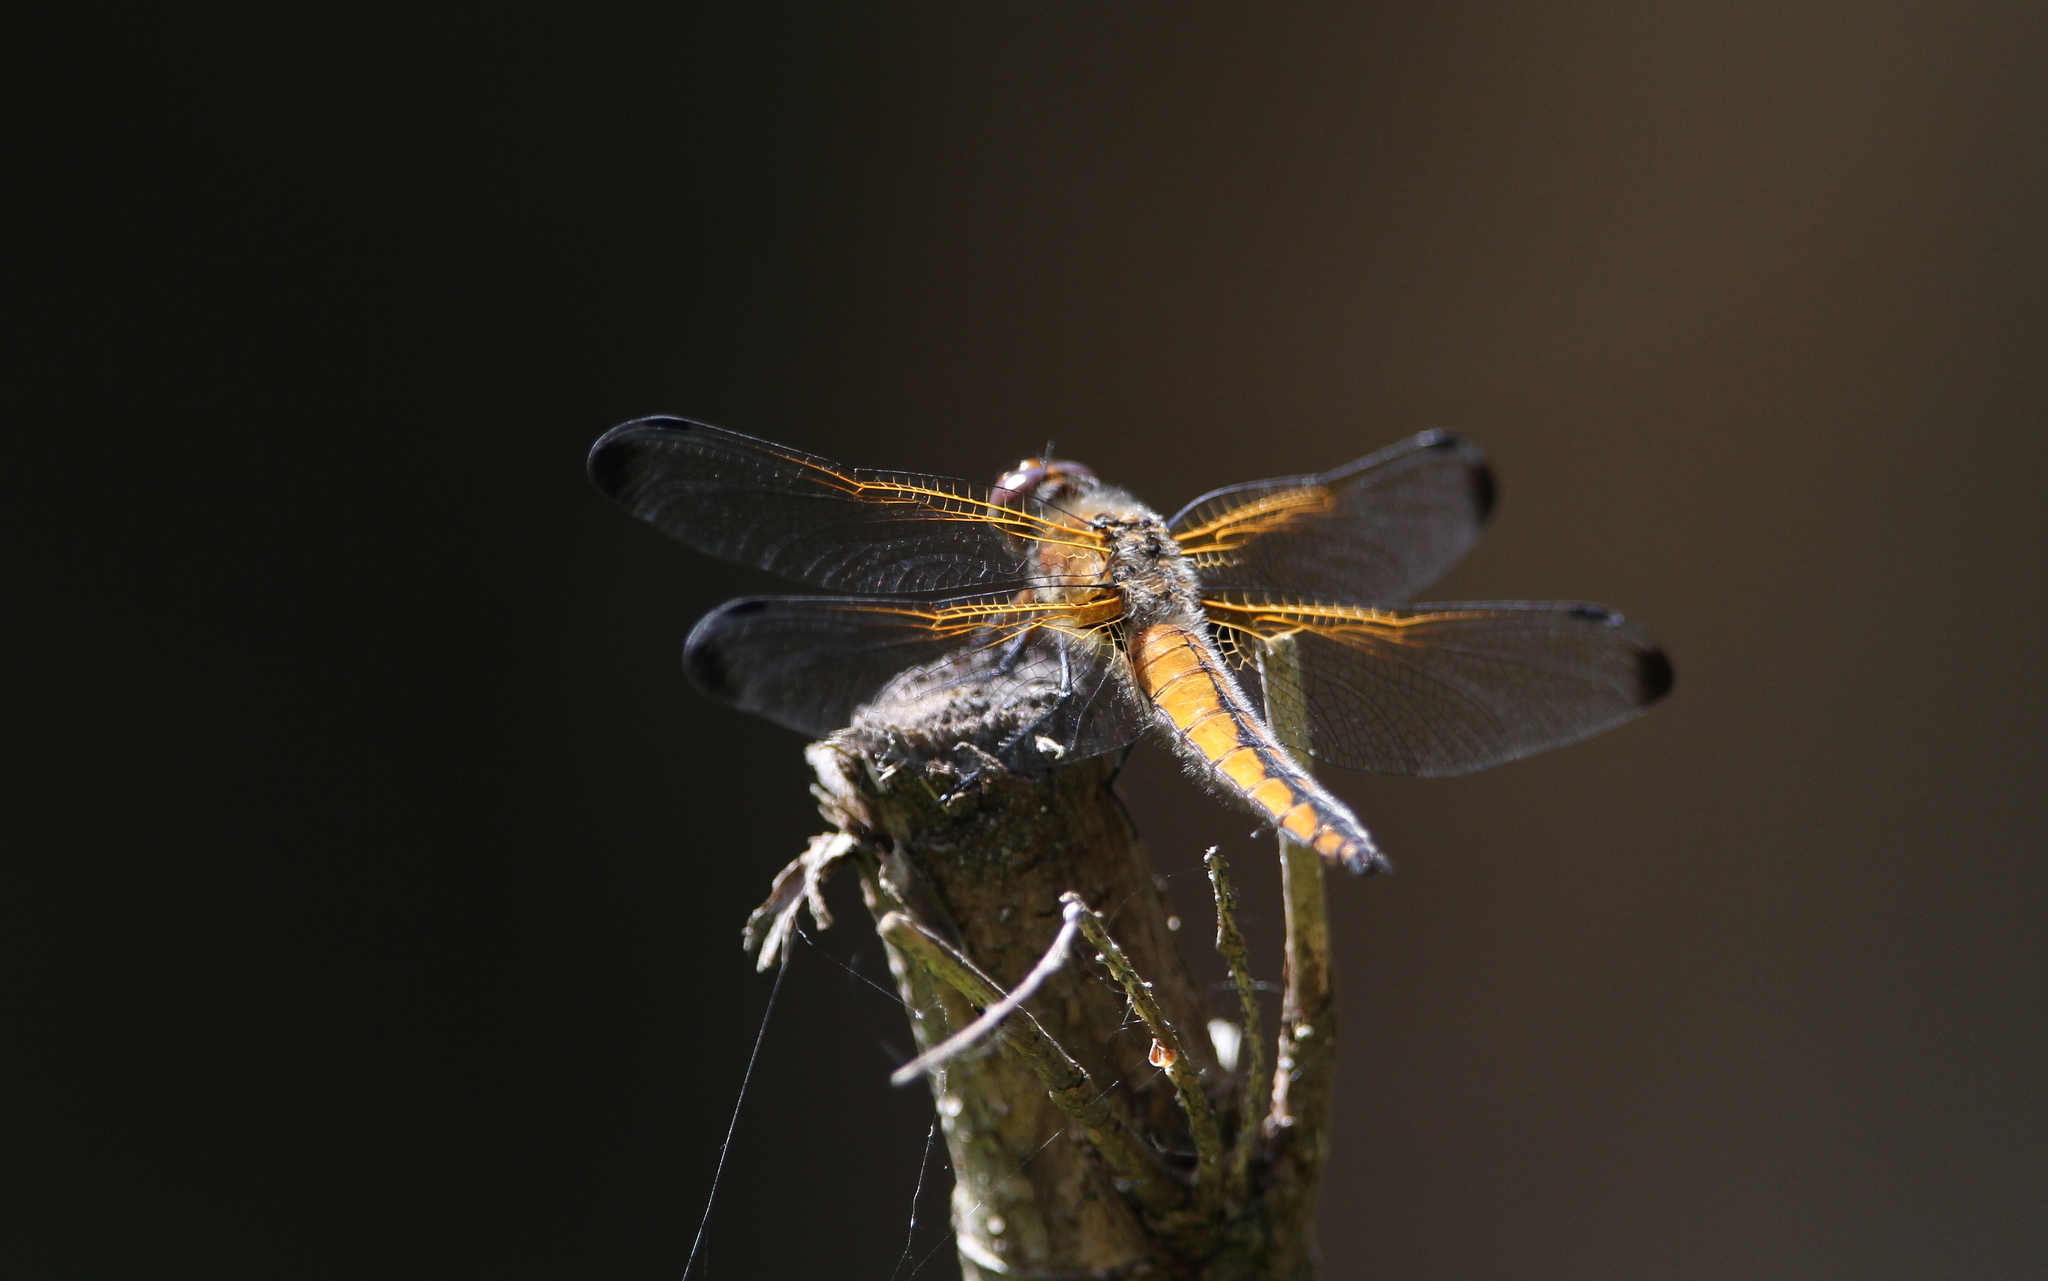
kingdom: Animalia
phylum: Arthropoda
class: Insecta
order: Odonata
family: Libellulidae
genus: Libellula
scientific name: Libellula fulva
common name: Blue chaser
